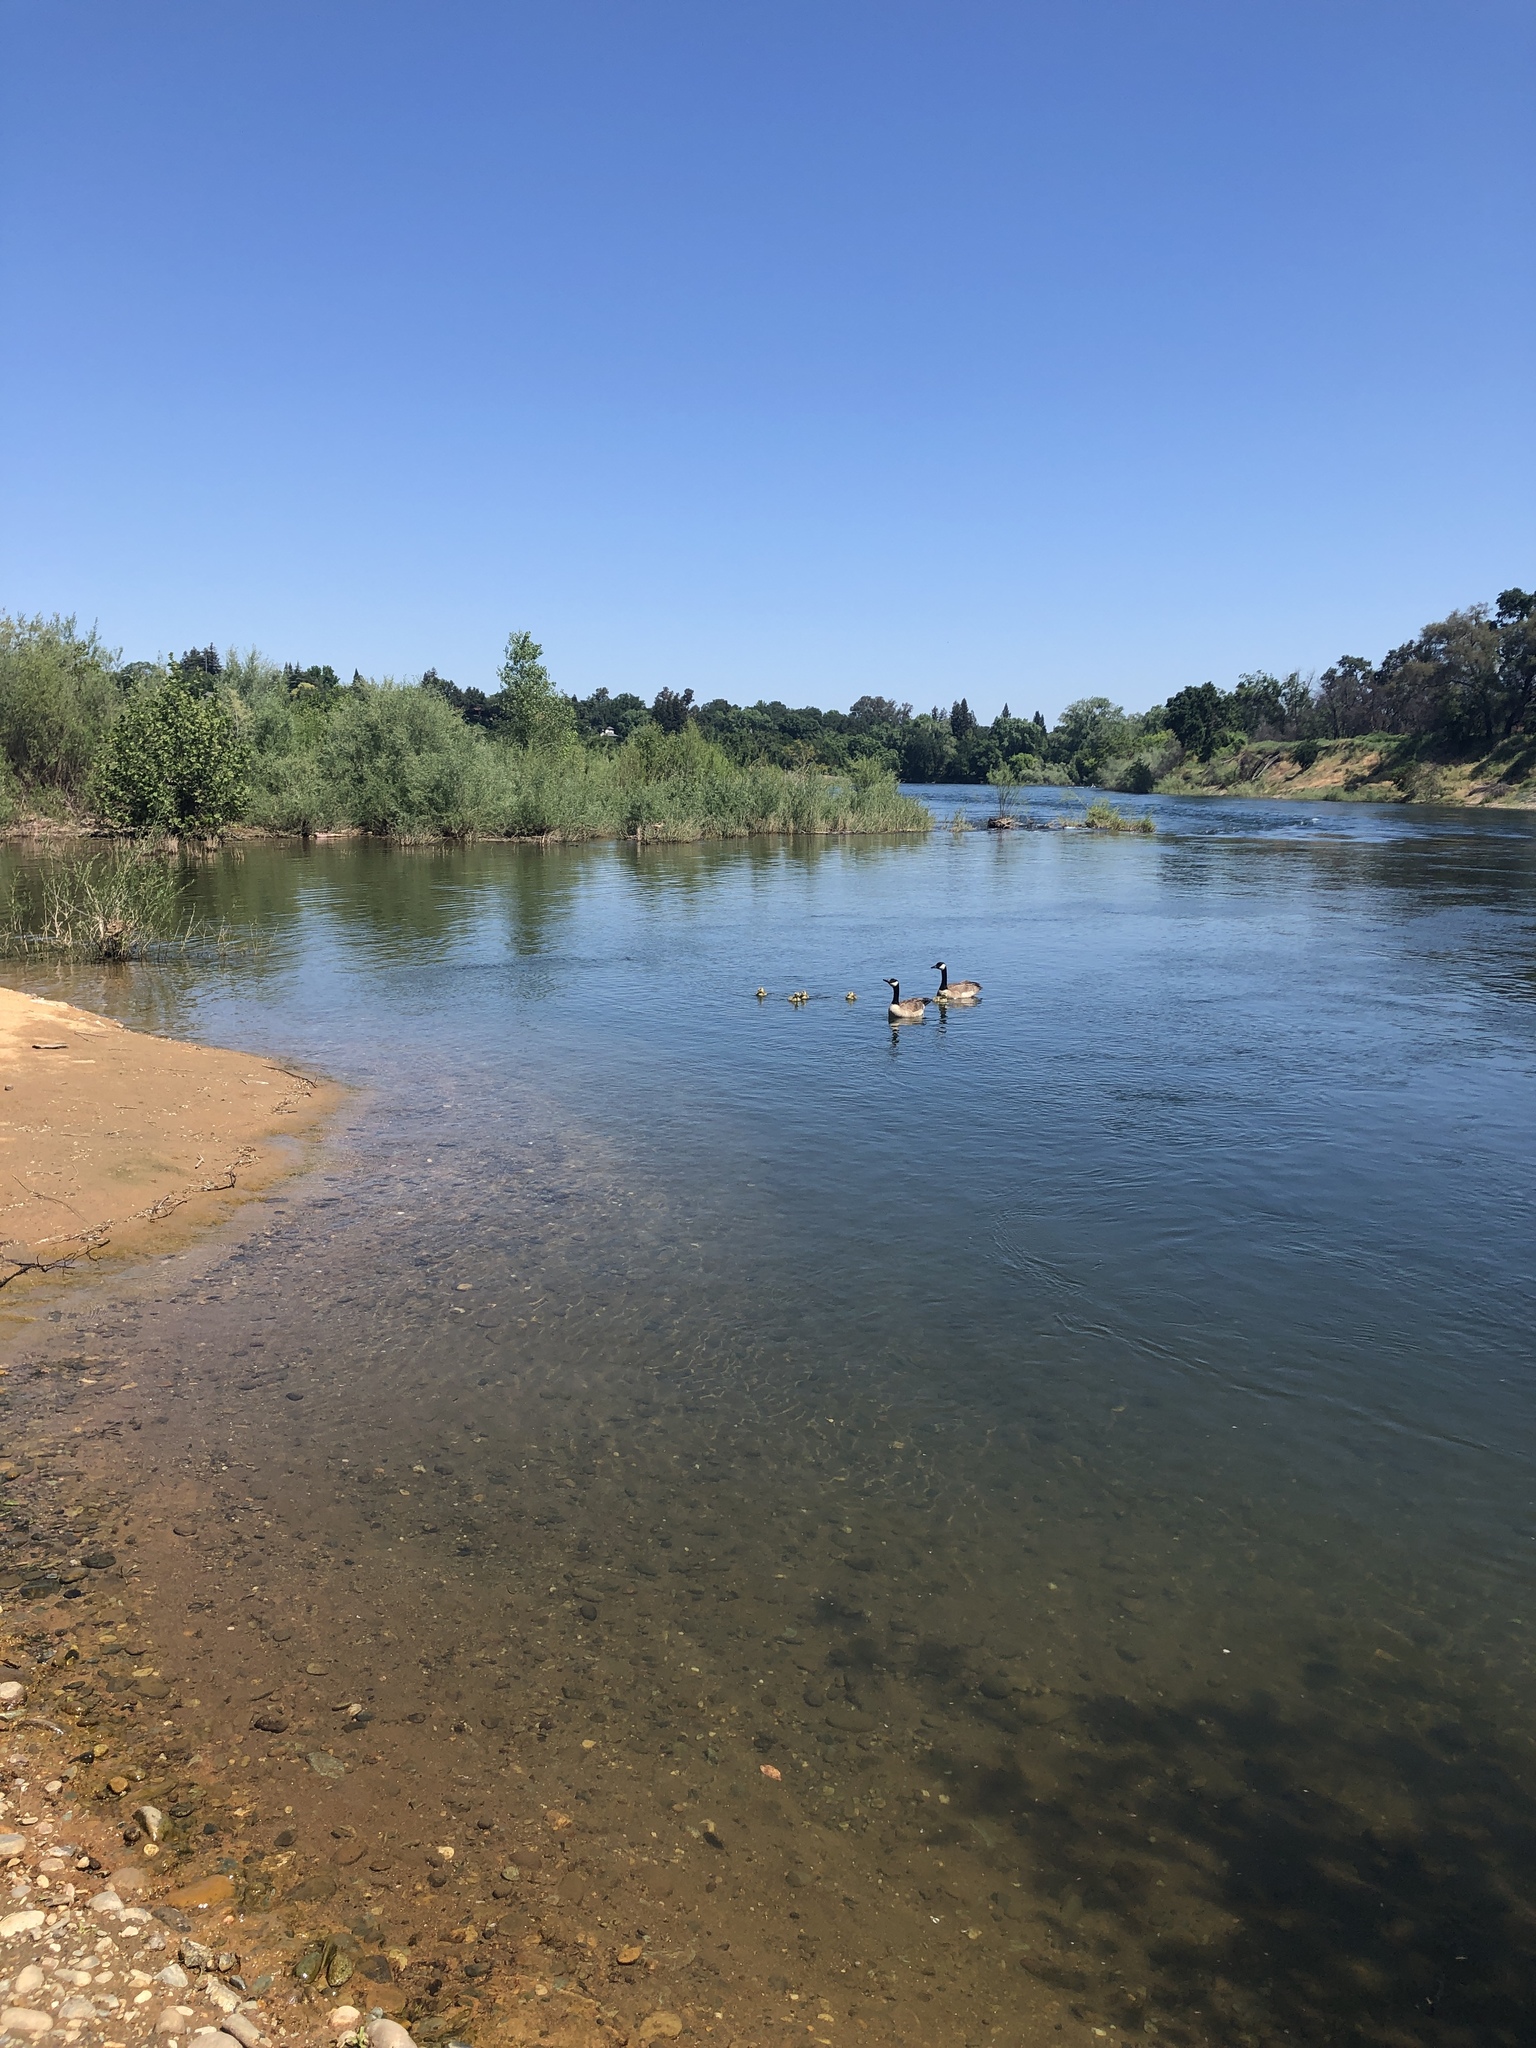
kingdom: Animalia
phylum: Chordata
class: Aves
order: Anseriformes
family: Anatidae
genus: Branta
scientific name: Branta canadensis
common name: Canada goose
